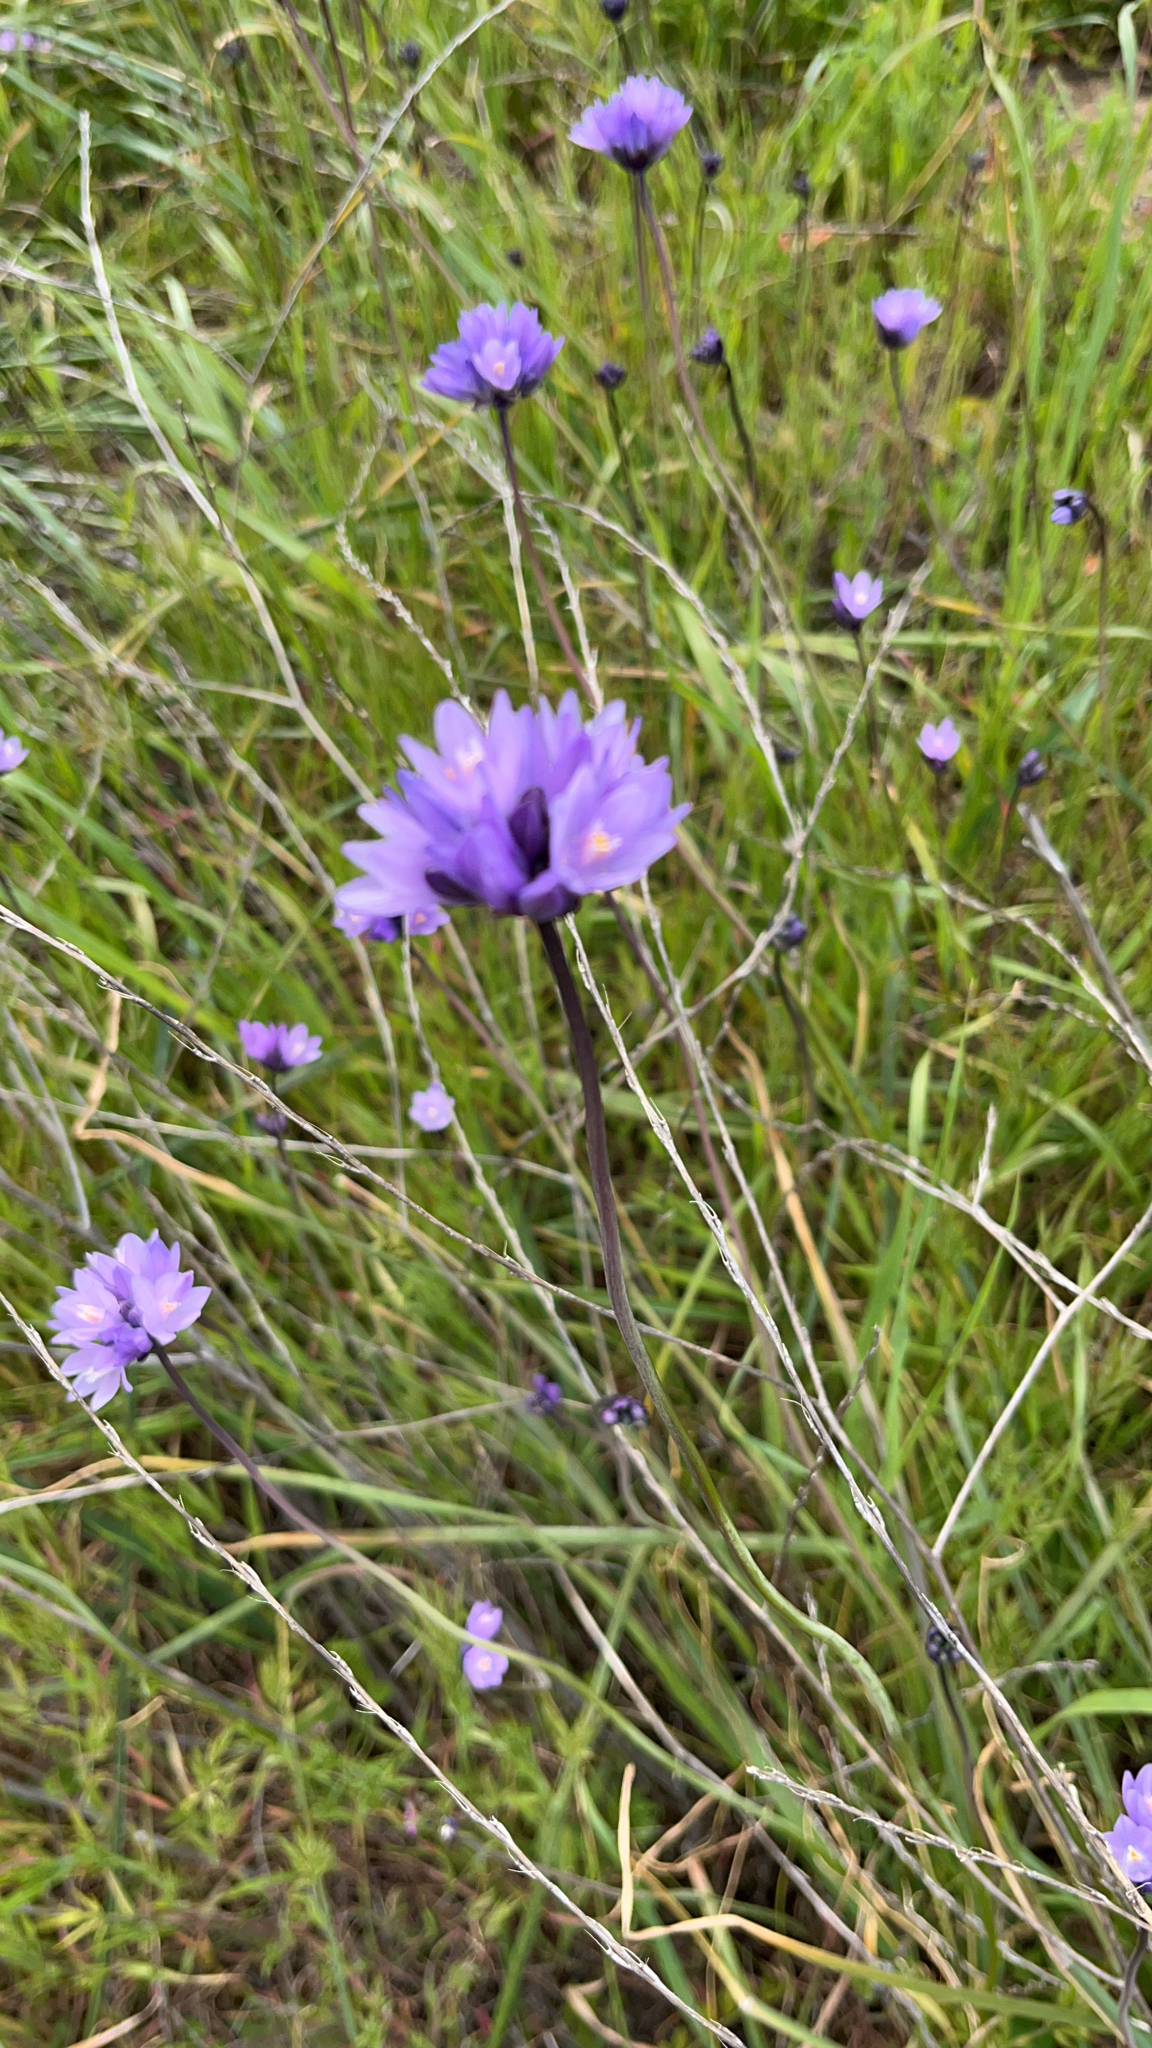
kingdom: Plantae
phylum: Tracheophyta
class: Liliopsida
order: Asparagales
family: Asparagaceae
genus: Dipterostemon
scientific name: Dipterostemon capitatus
